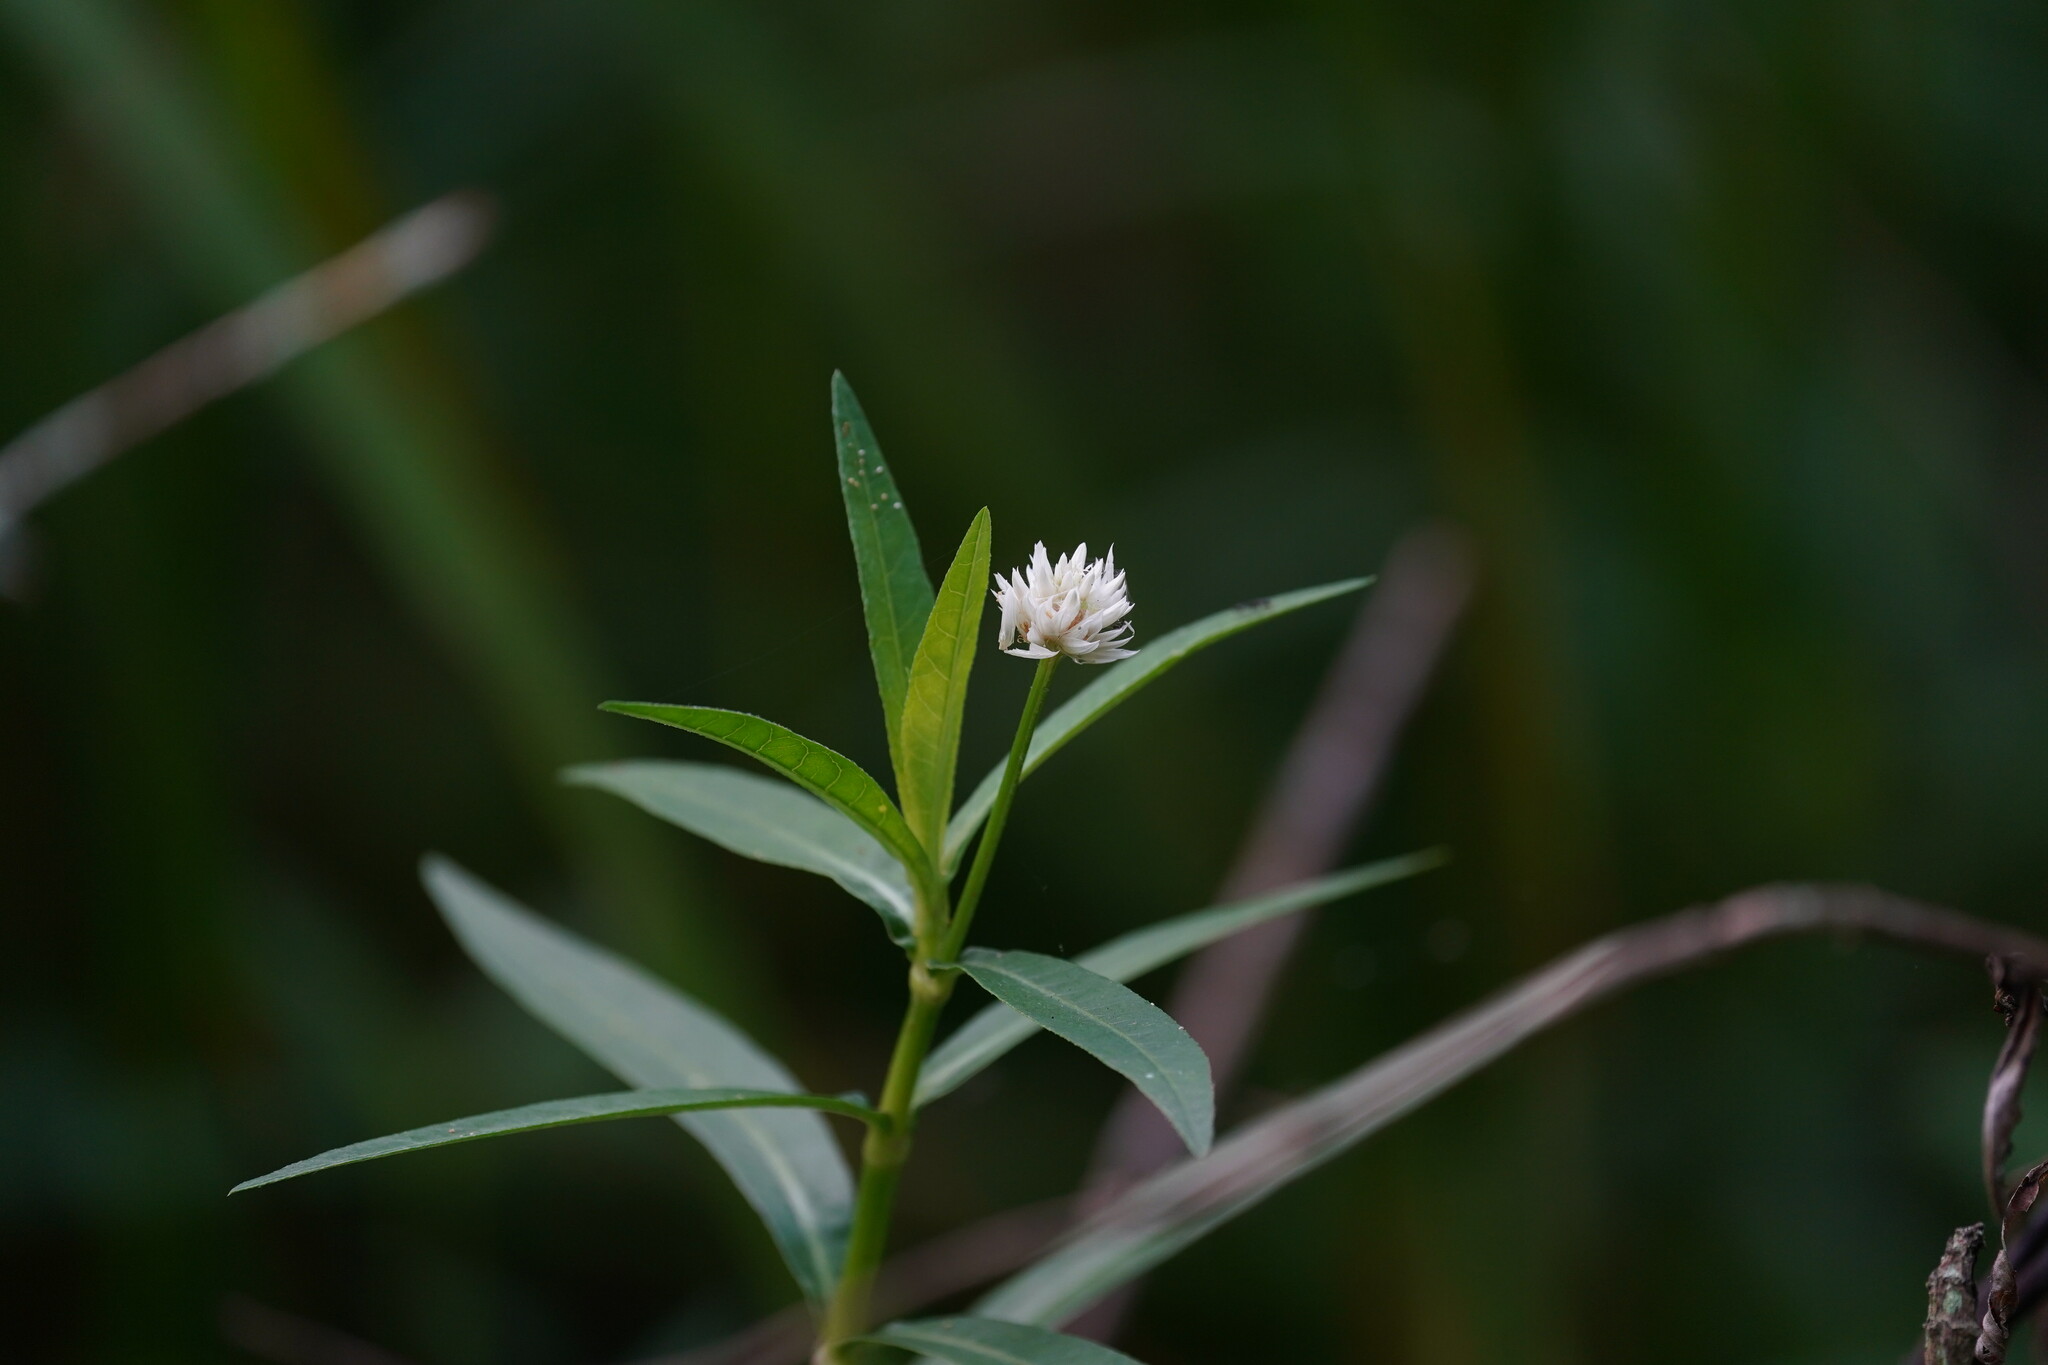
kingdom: Plantae
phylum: Tracheophyta
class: Magnoliopsida
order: Caryophyllales
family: Amaranthaceae
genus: Alternanthera
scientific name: Alternanthera philoxeroides
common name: Alligatorweed
